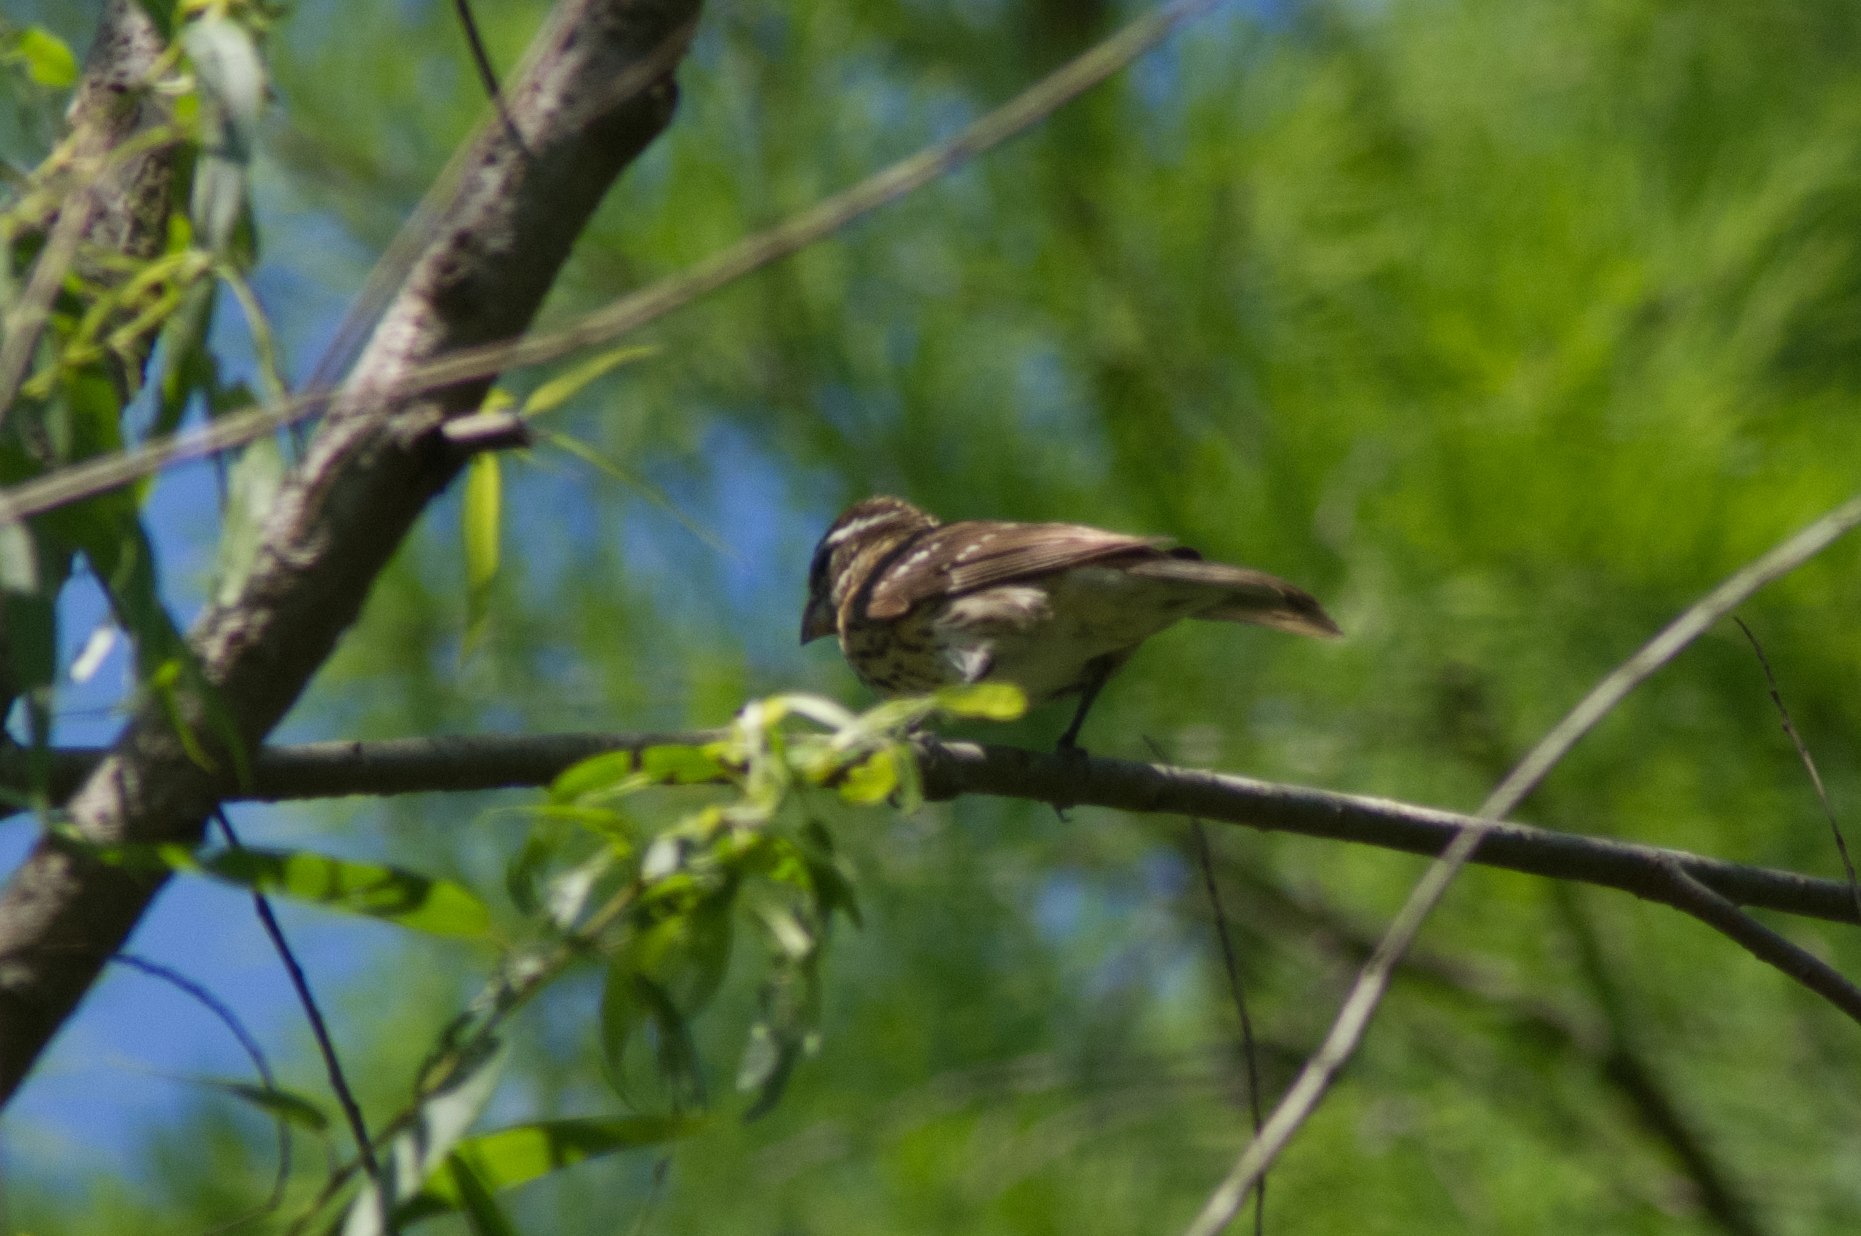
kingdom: Animalia
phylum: Chordata
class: Aves
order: Passeriformes
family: Cardinalidae
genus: Pheucticus
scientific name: Pheucticus ludovicianus
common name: Rose-breasted grosbeak
